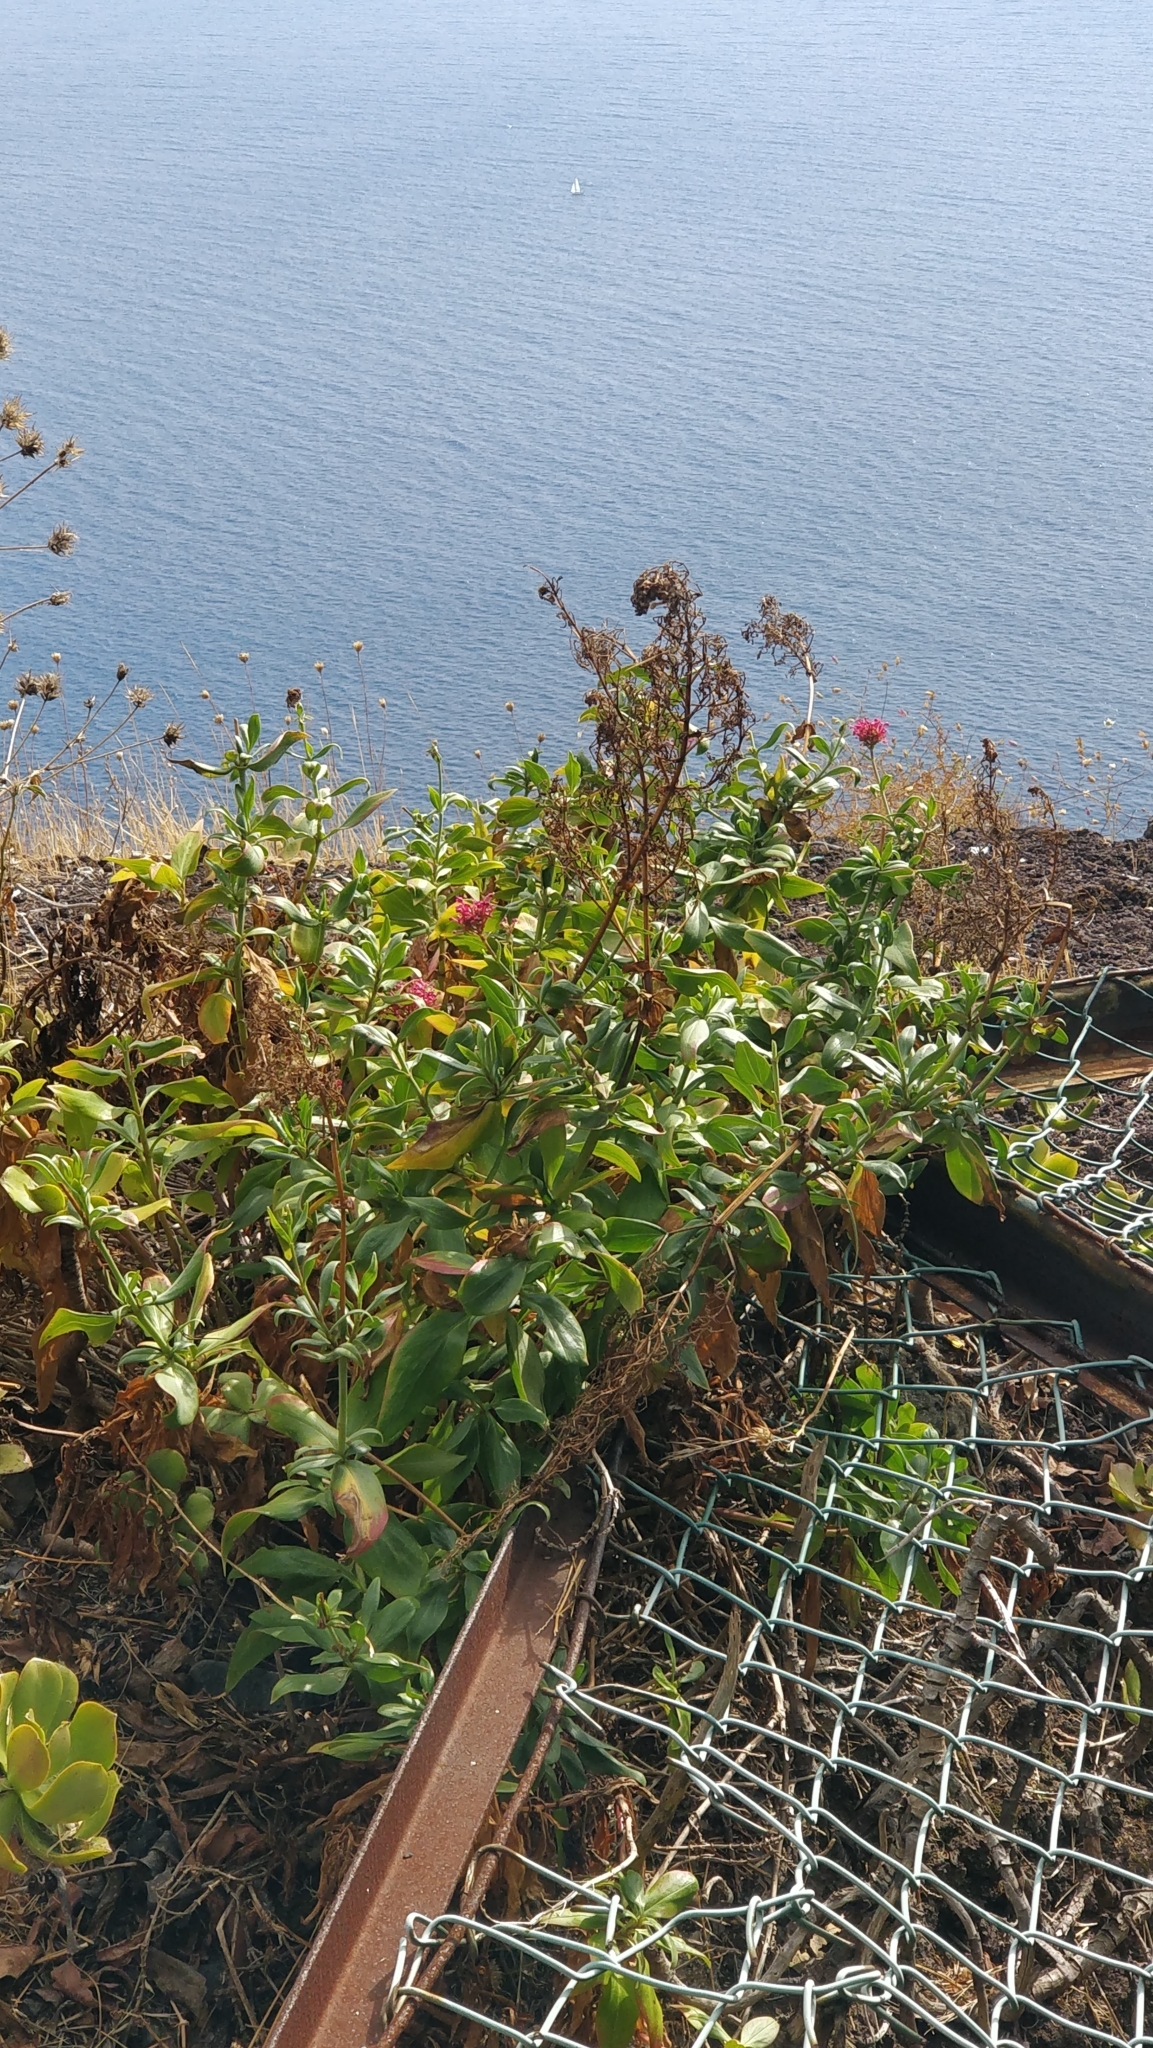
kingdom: Plantae
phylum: Tracheophyta
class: Magnoliopsida
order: Dipsacales
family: Caprifoliaceae
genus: Centranthus
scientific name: Centranthus ruber
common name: Red valerian
